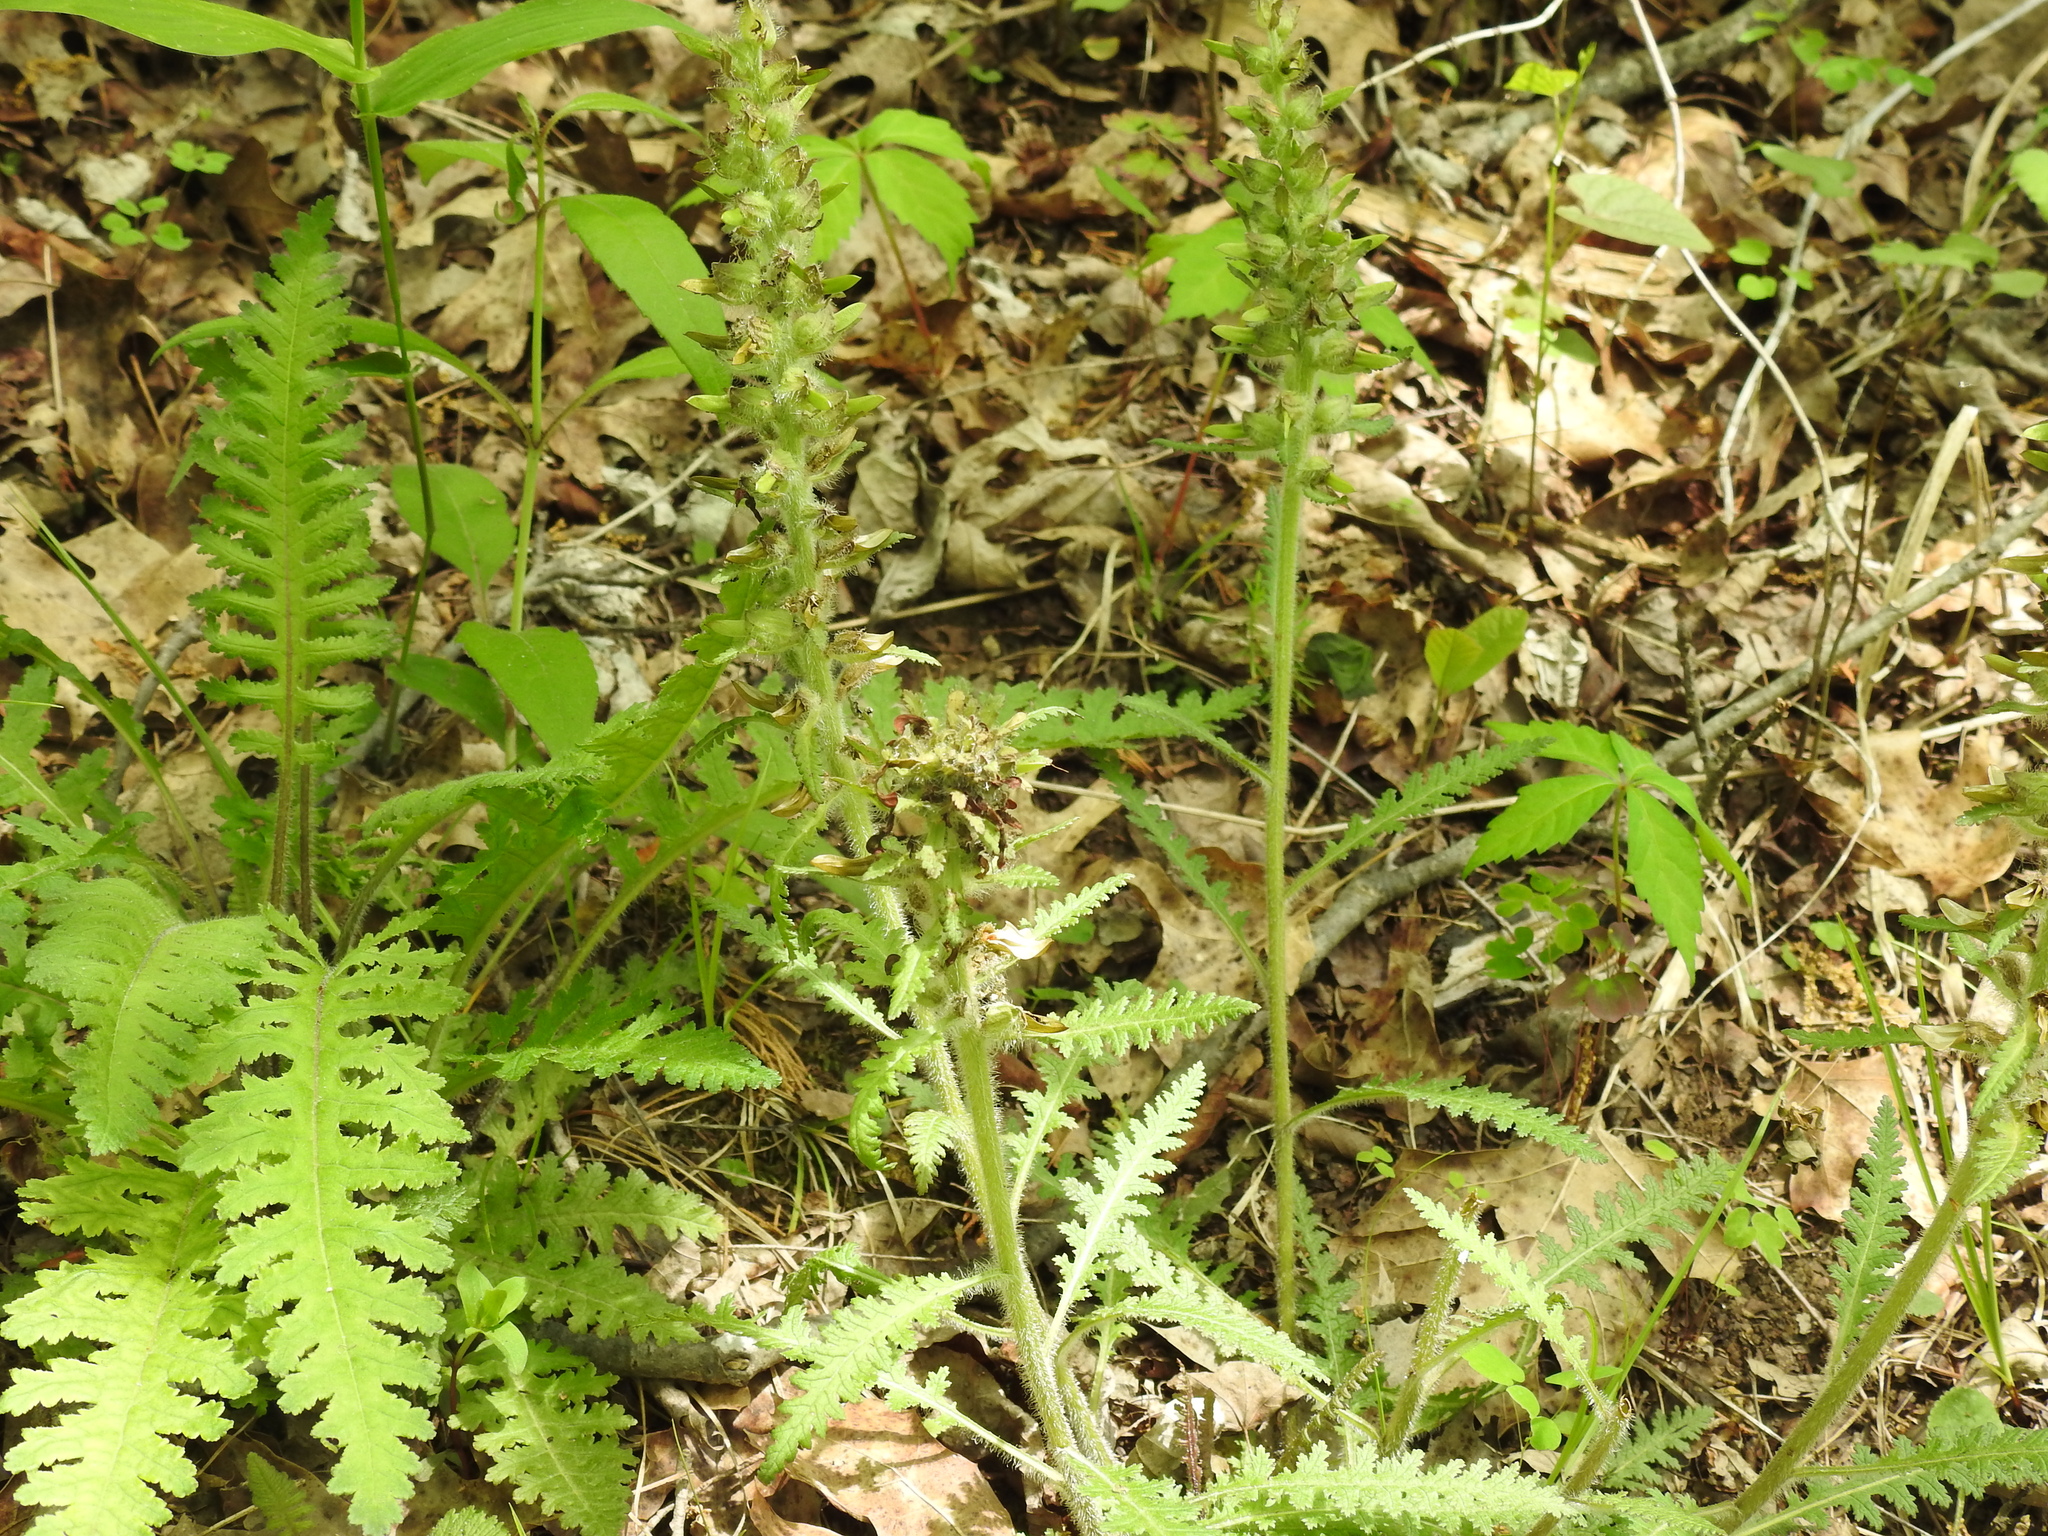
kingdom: Plantae
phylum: Tracheophyta
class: Magnoliopsida
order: Lamiales
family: Orobanchaceae
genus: Pedicularis
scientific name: Pedicularis canadensis
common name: Early lousewort
